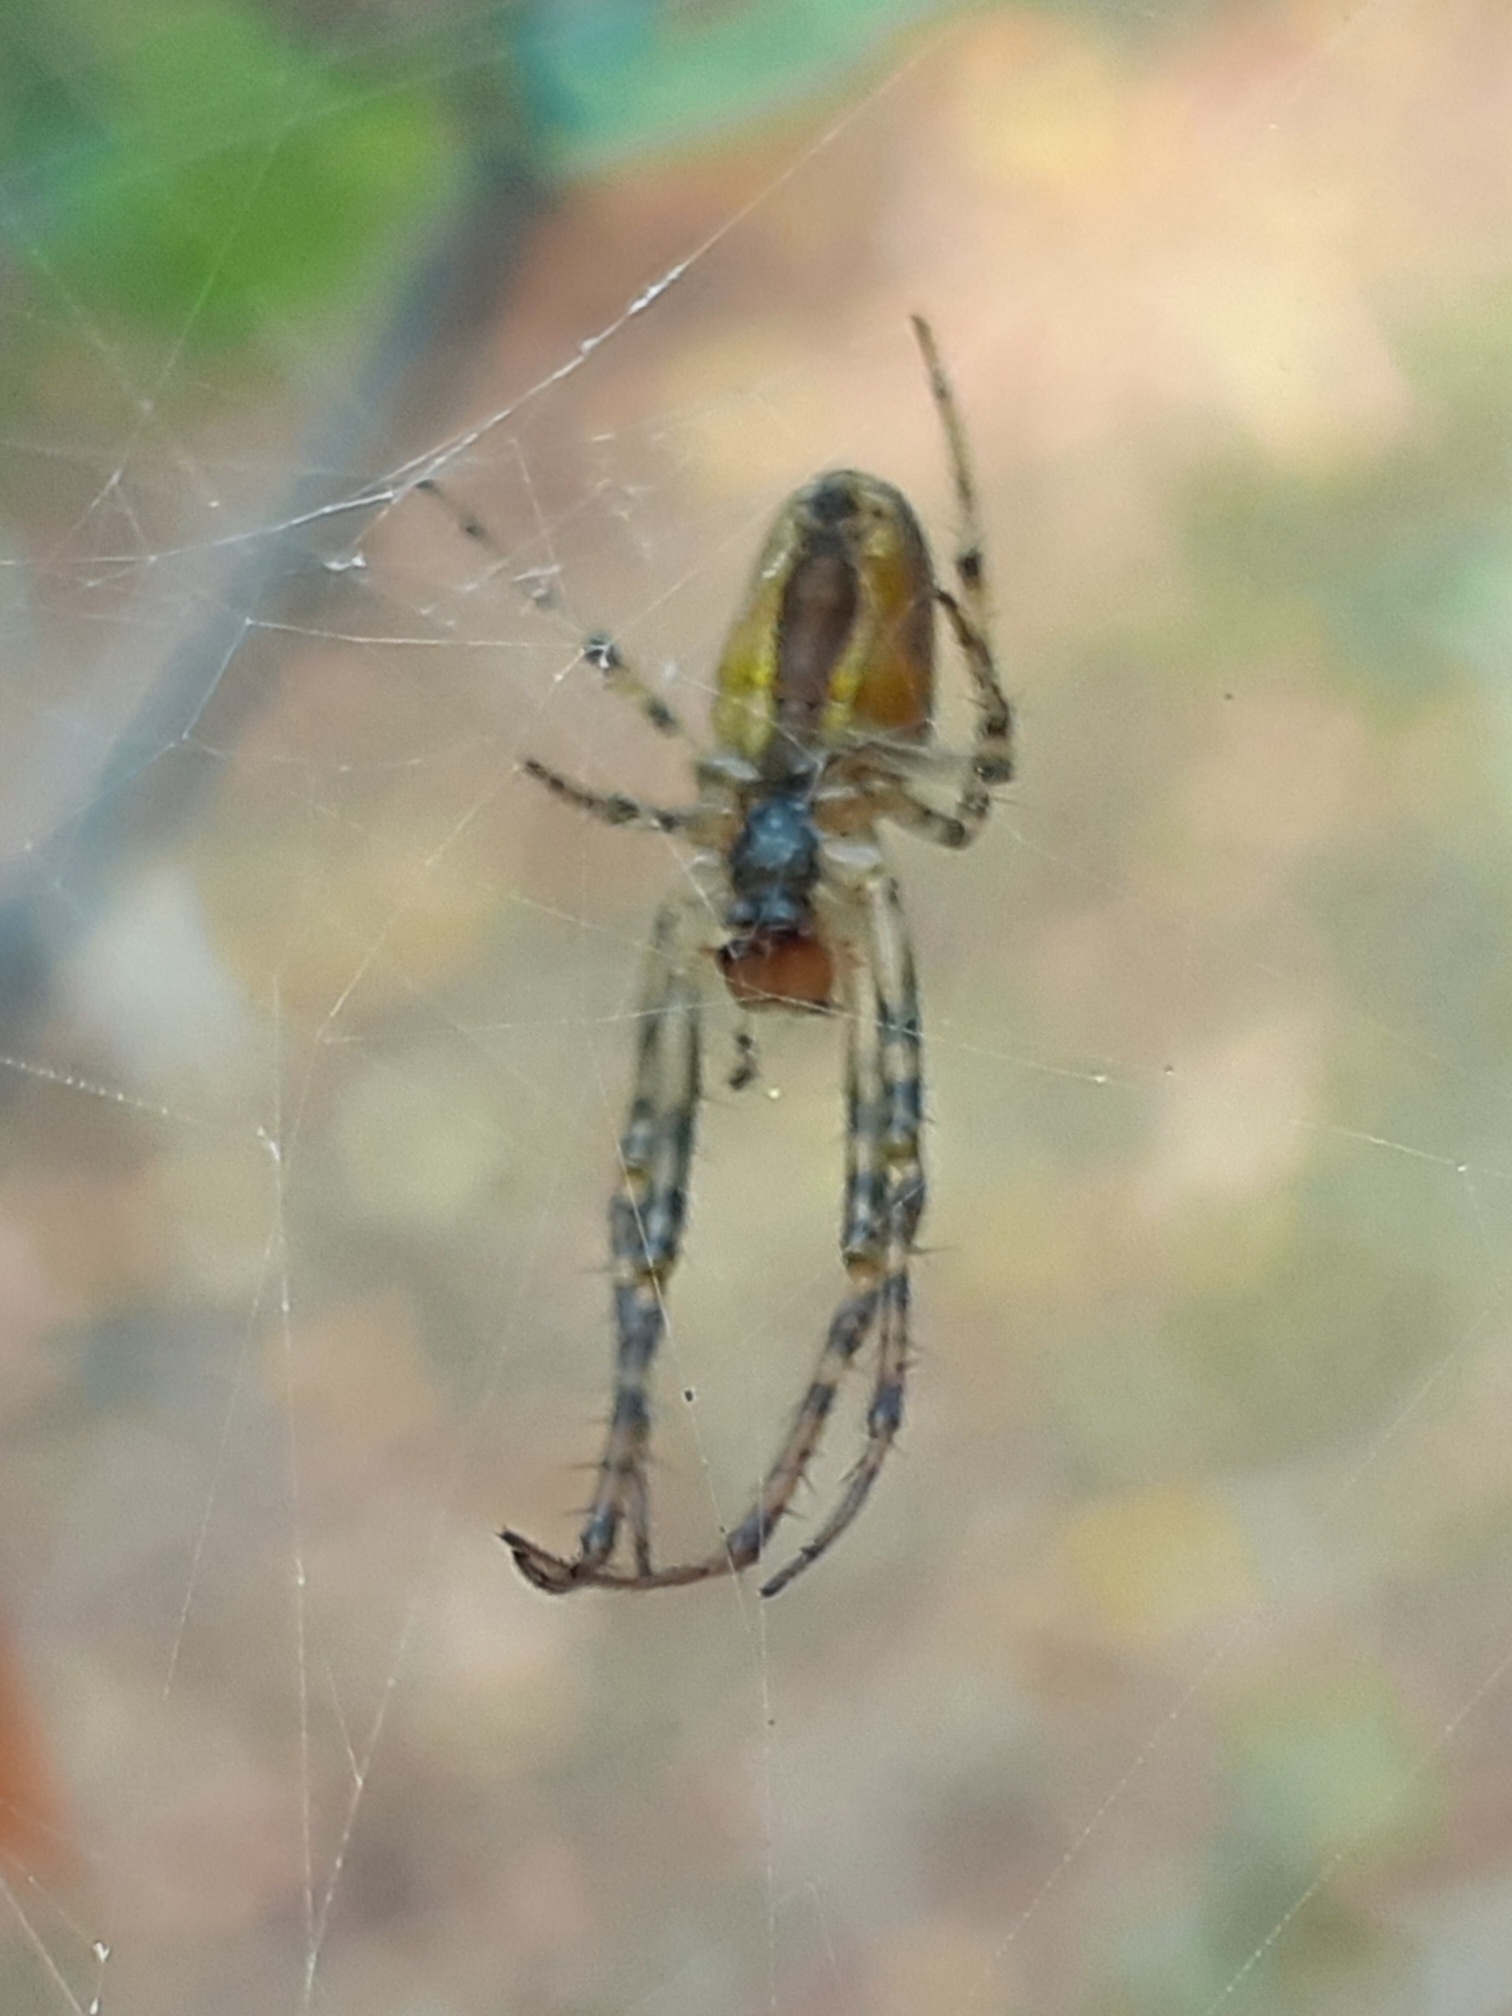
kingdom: Animalia
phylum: Arthropoda
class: Arachnida
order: Araneae
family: Tetragnathidae
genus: Metellina
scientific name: Metellina segmentata
